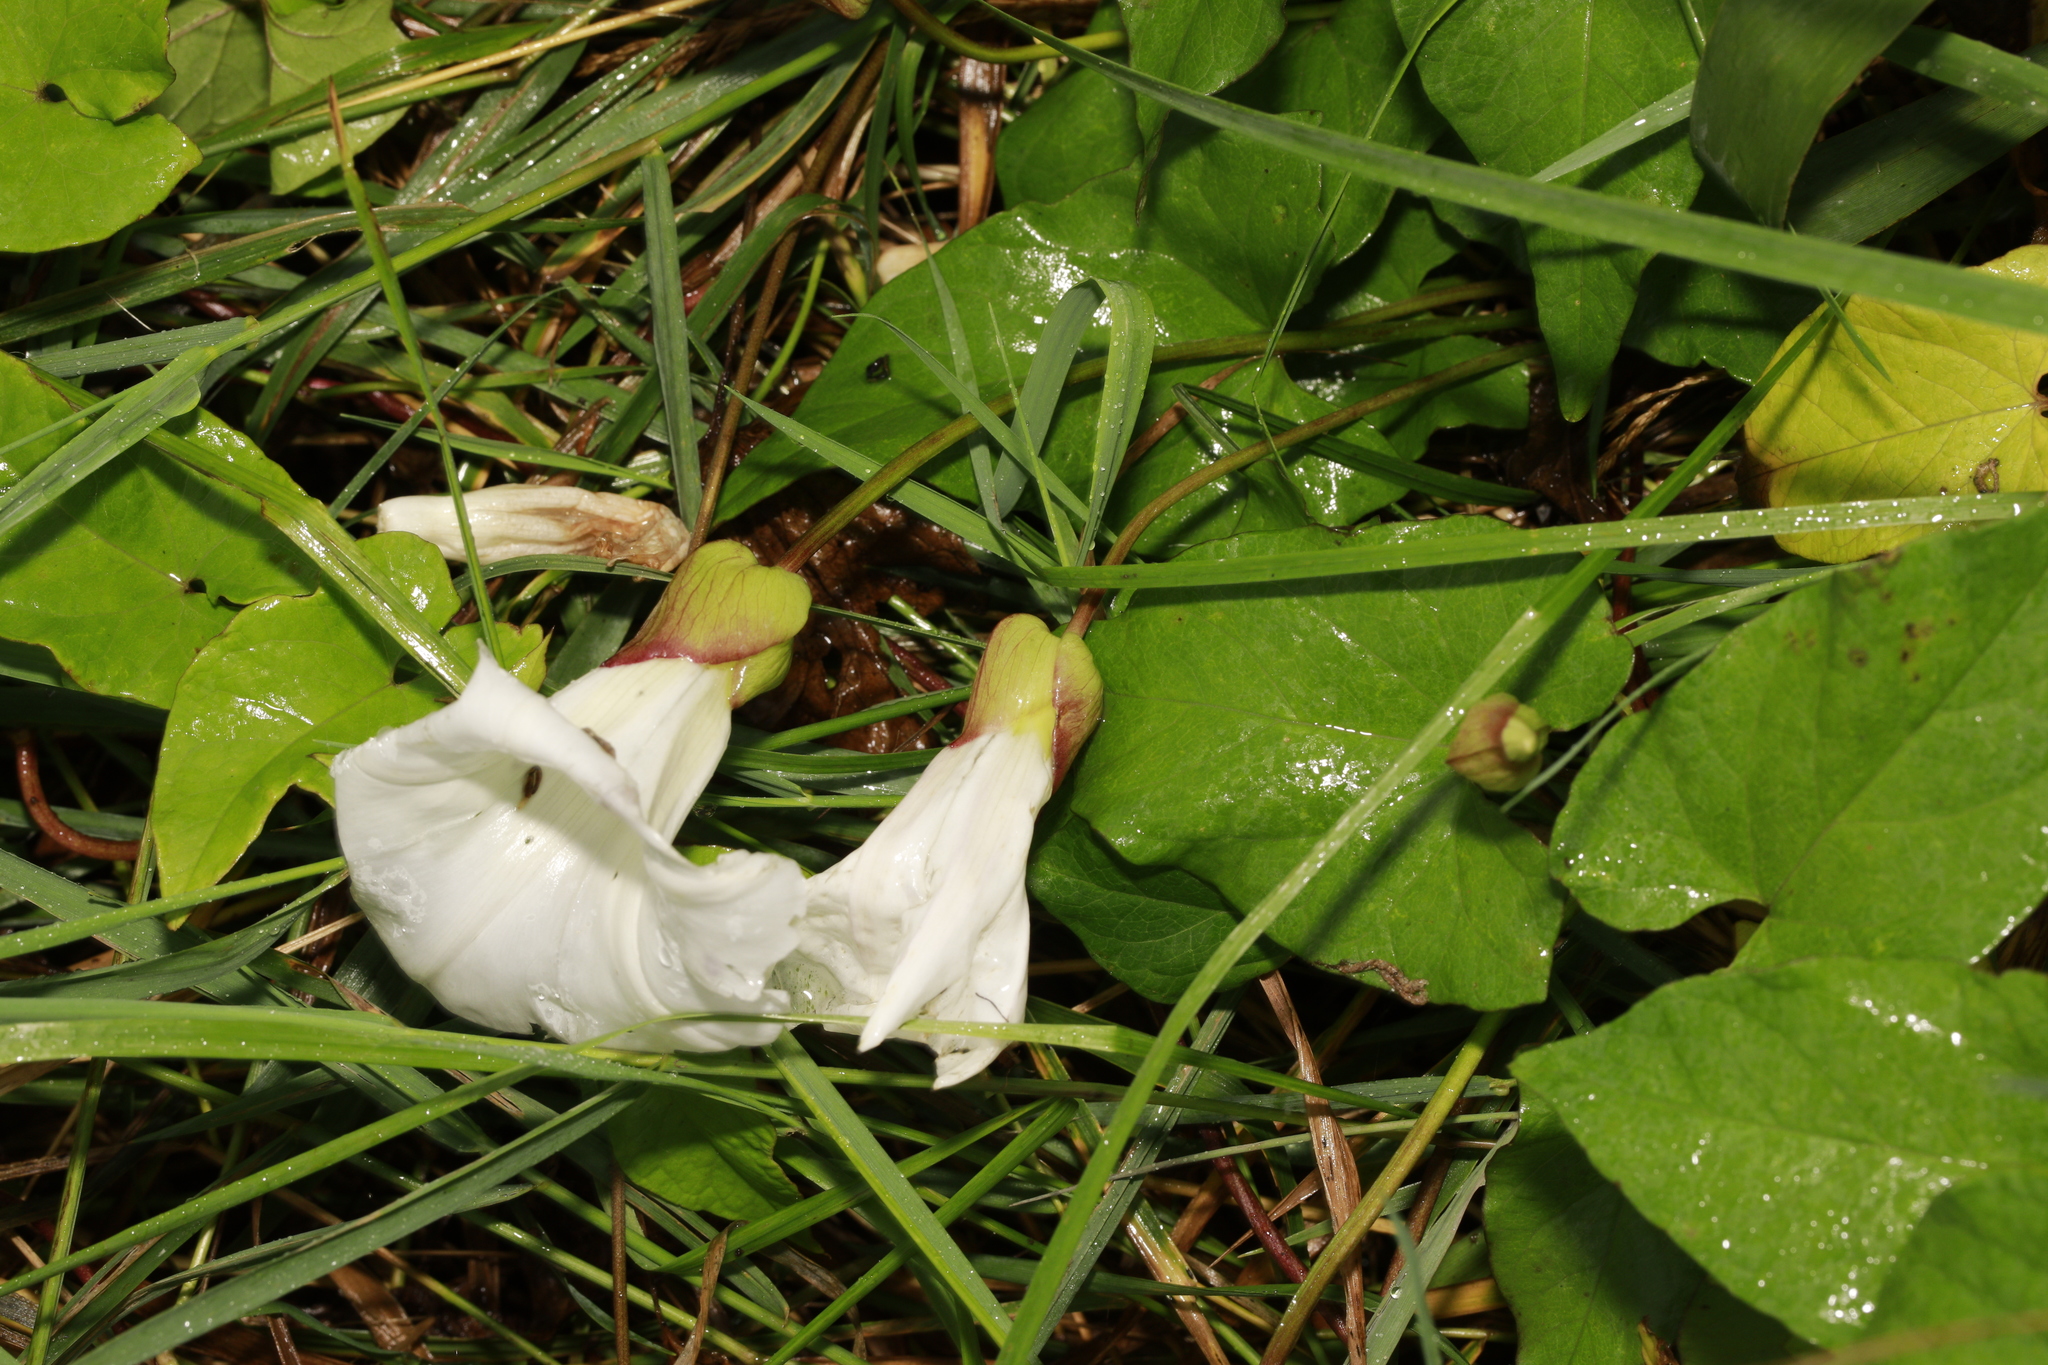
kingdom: Plantae
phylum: Tracheophyta
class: Magnoliopsida
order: Solanales
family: Convolvulaceae
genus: Calystegia
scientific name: Calystegia silvatica
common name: Large bindweed
